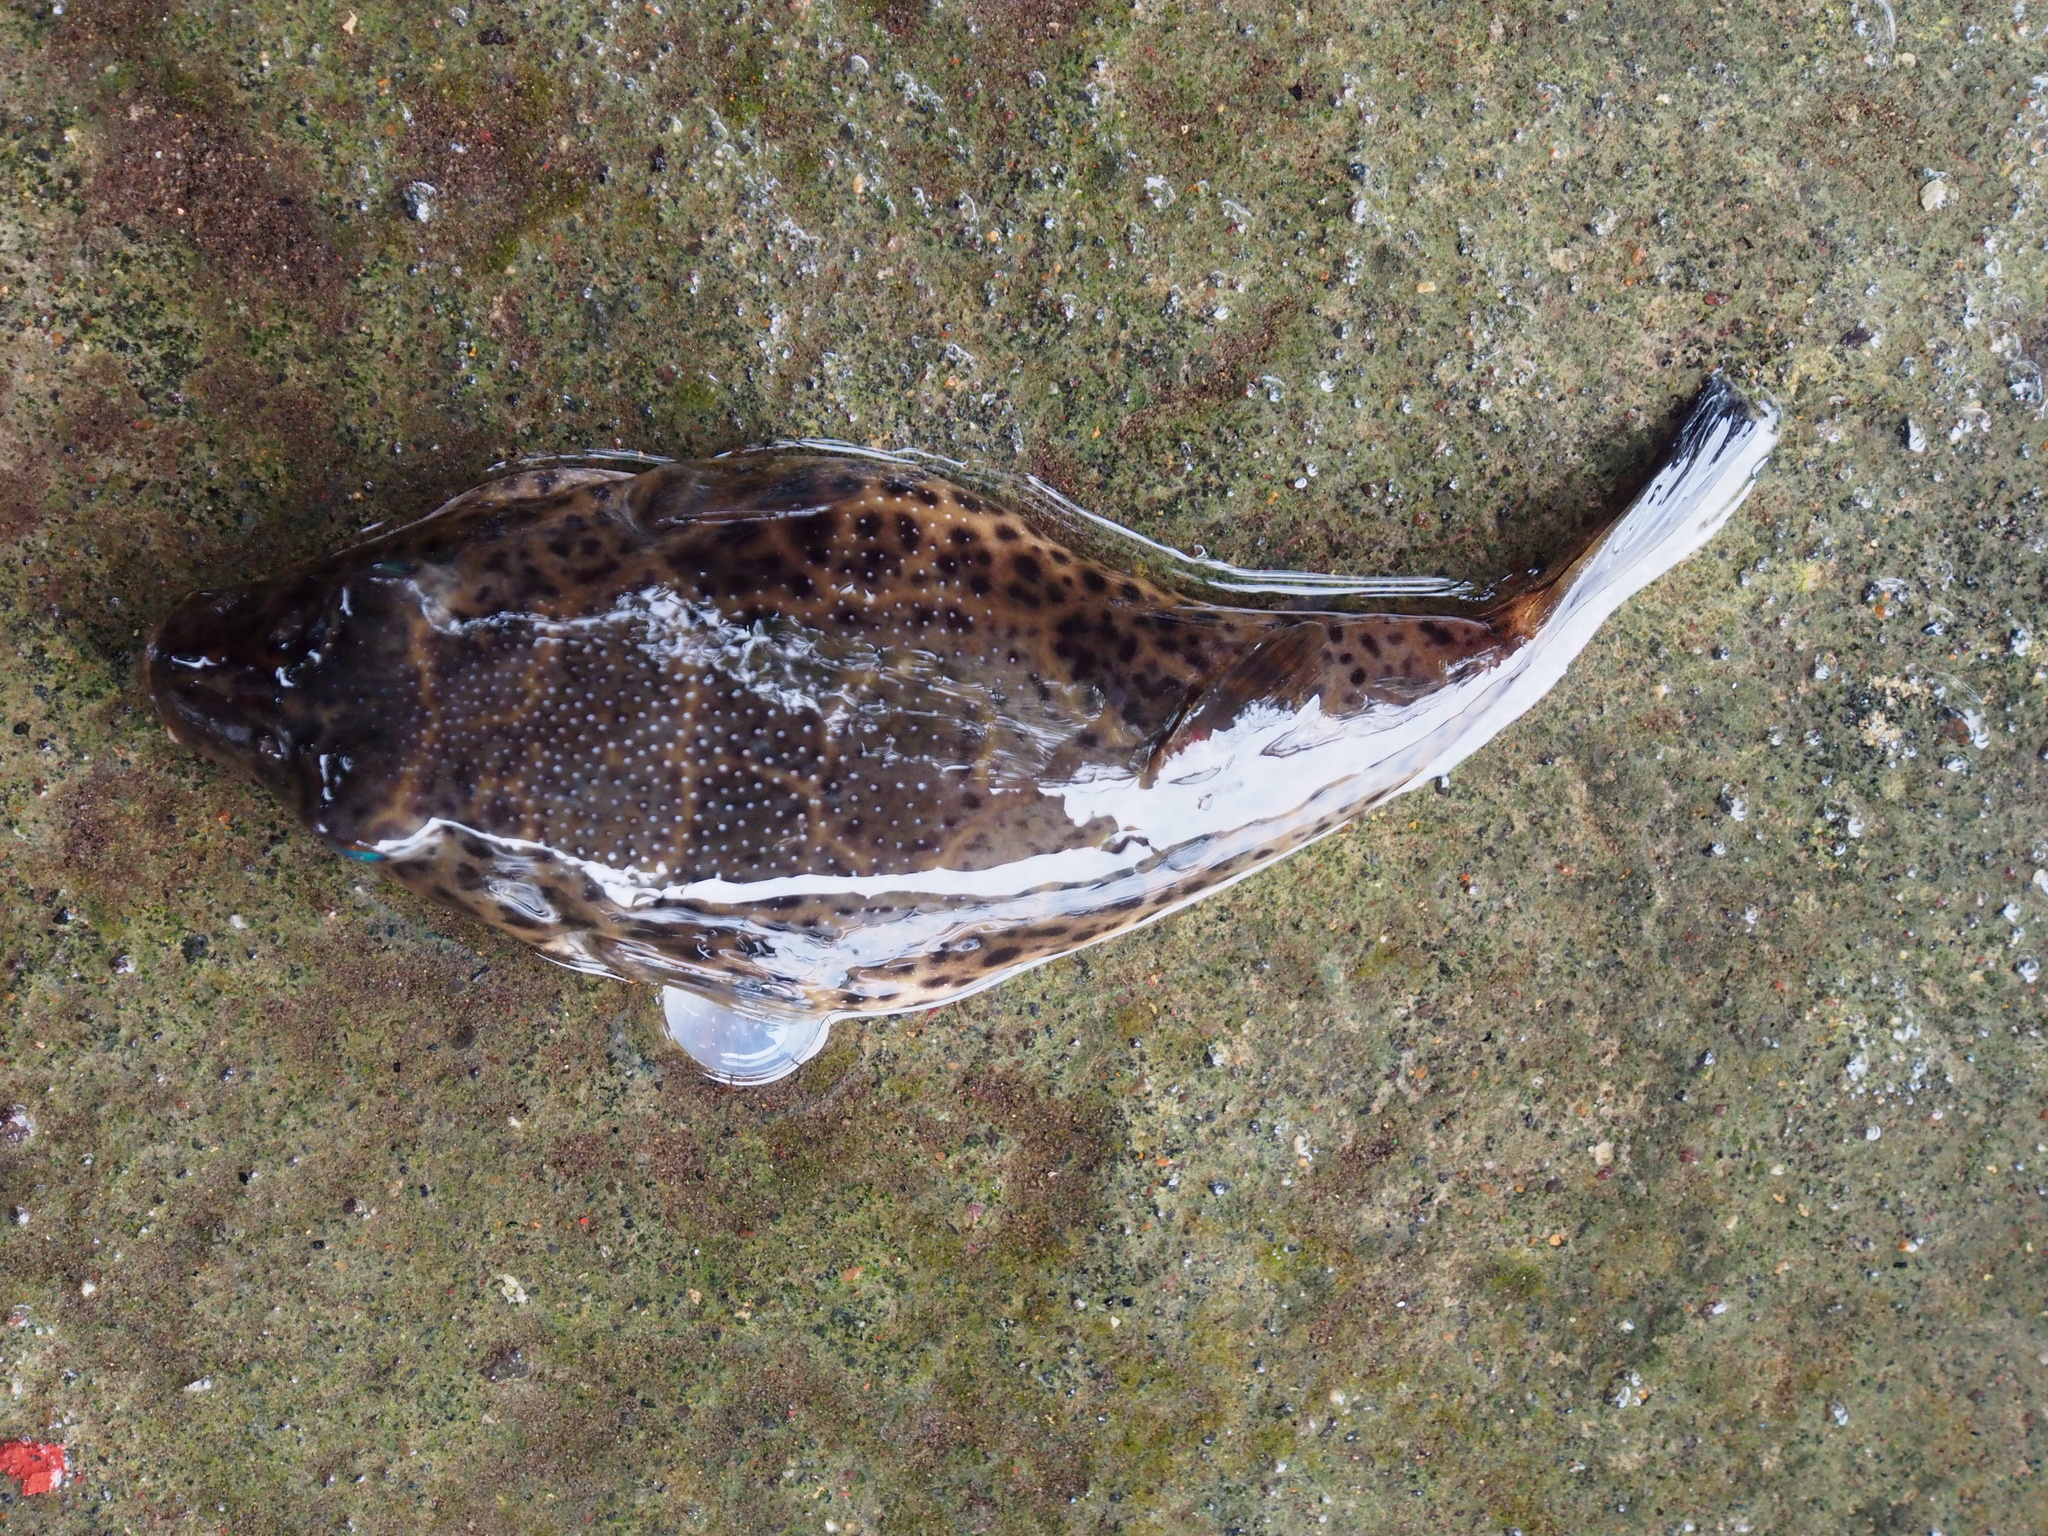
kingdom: Animalia
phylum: Chordata
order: Tetraodontiformes
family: Tetraodontidae
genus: Sphoeroides
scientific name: Sphoeroides testudineus
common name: Checkered puffer
